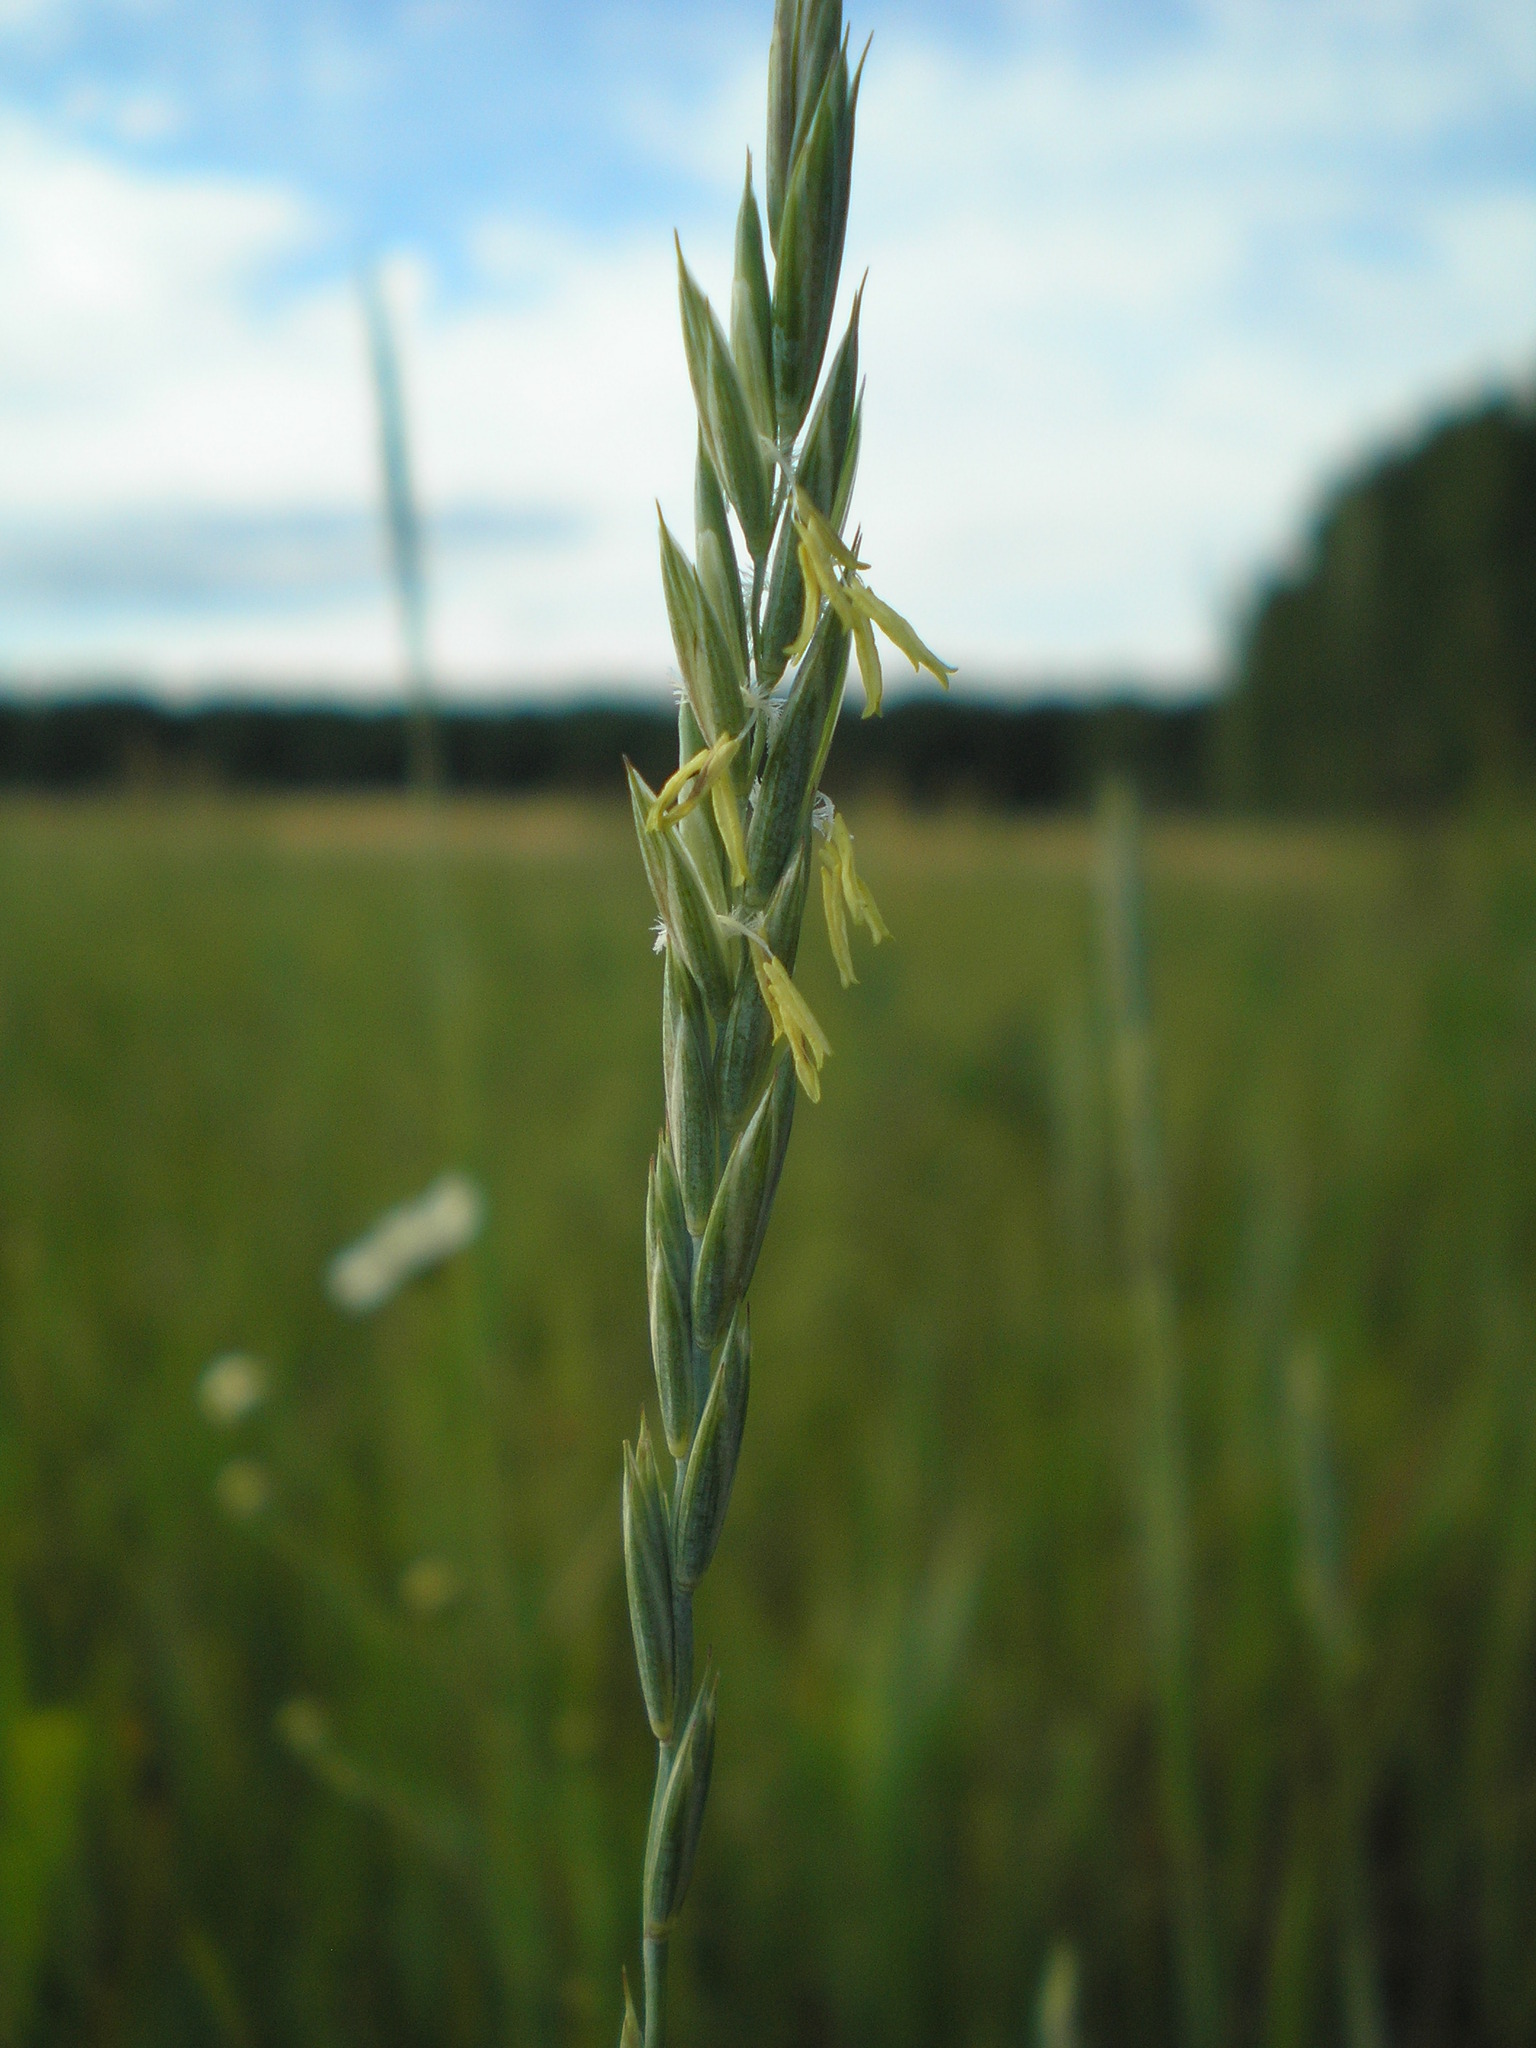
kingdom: Plantae
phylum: Tracheophyta
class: Liliopsida
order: Poales
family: Poaceae
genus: Elymus
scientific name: Elymus repens
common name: Quackgrass
